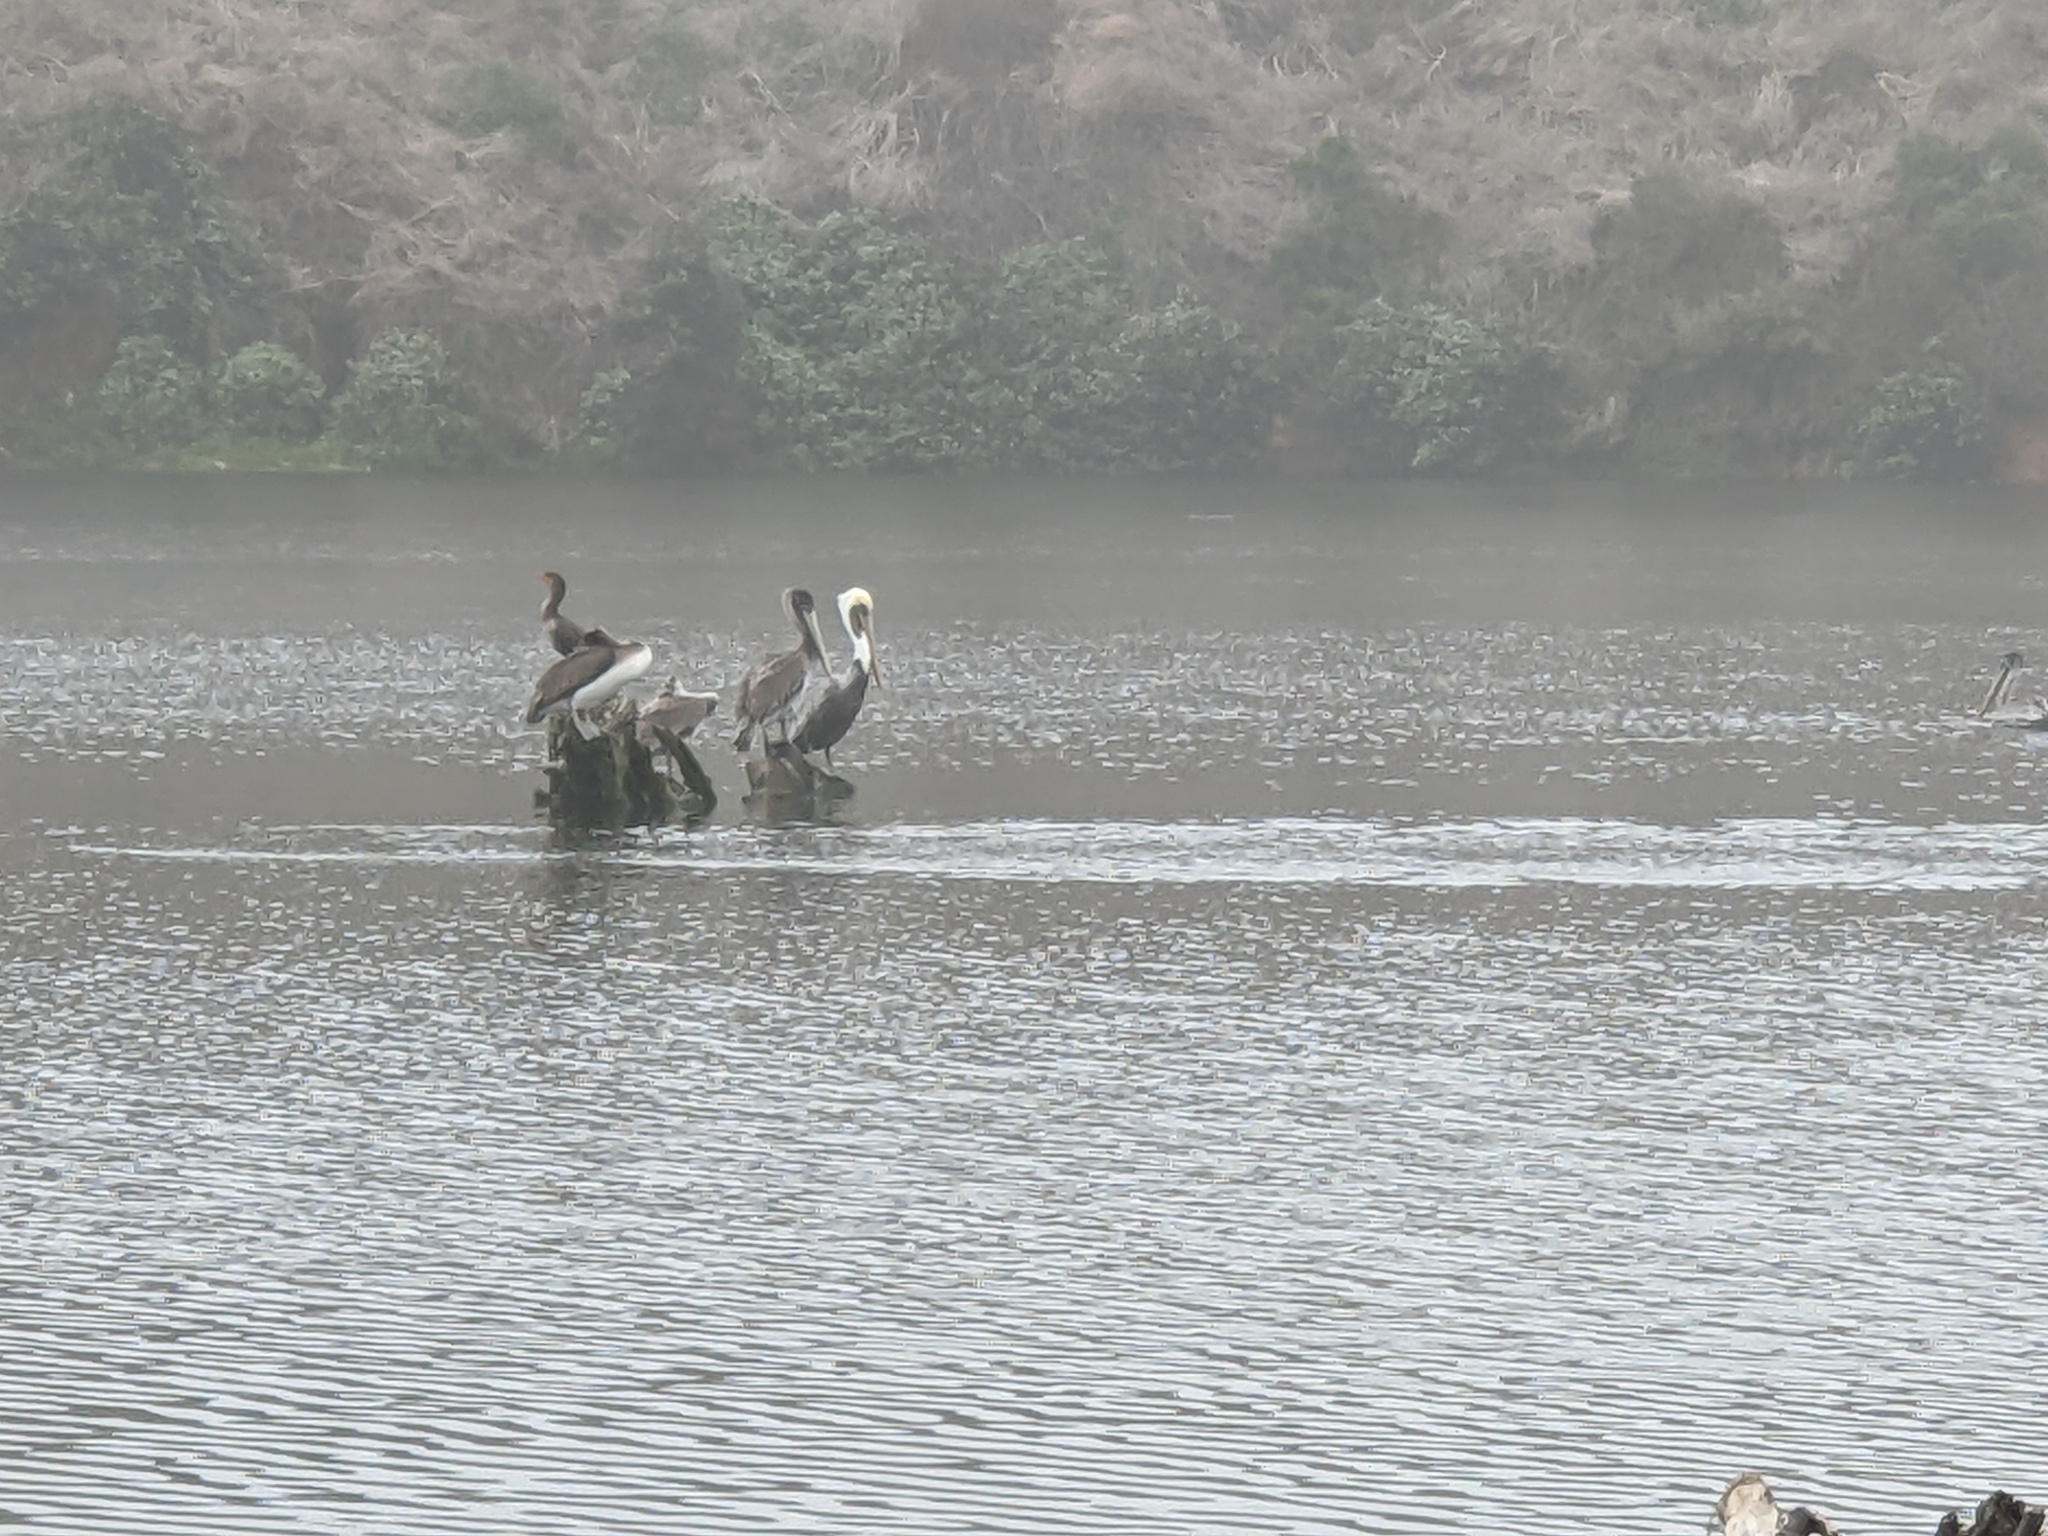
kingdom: Animalia
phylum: Chordata
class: Aves
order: Pelecaniformes
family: Pelecanidae
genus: Pelecanus
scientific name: Pelecanus occidentalis
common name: Brown pelican
